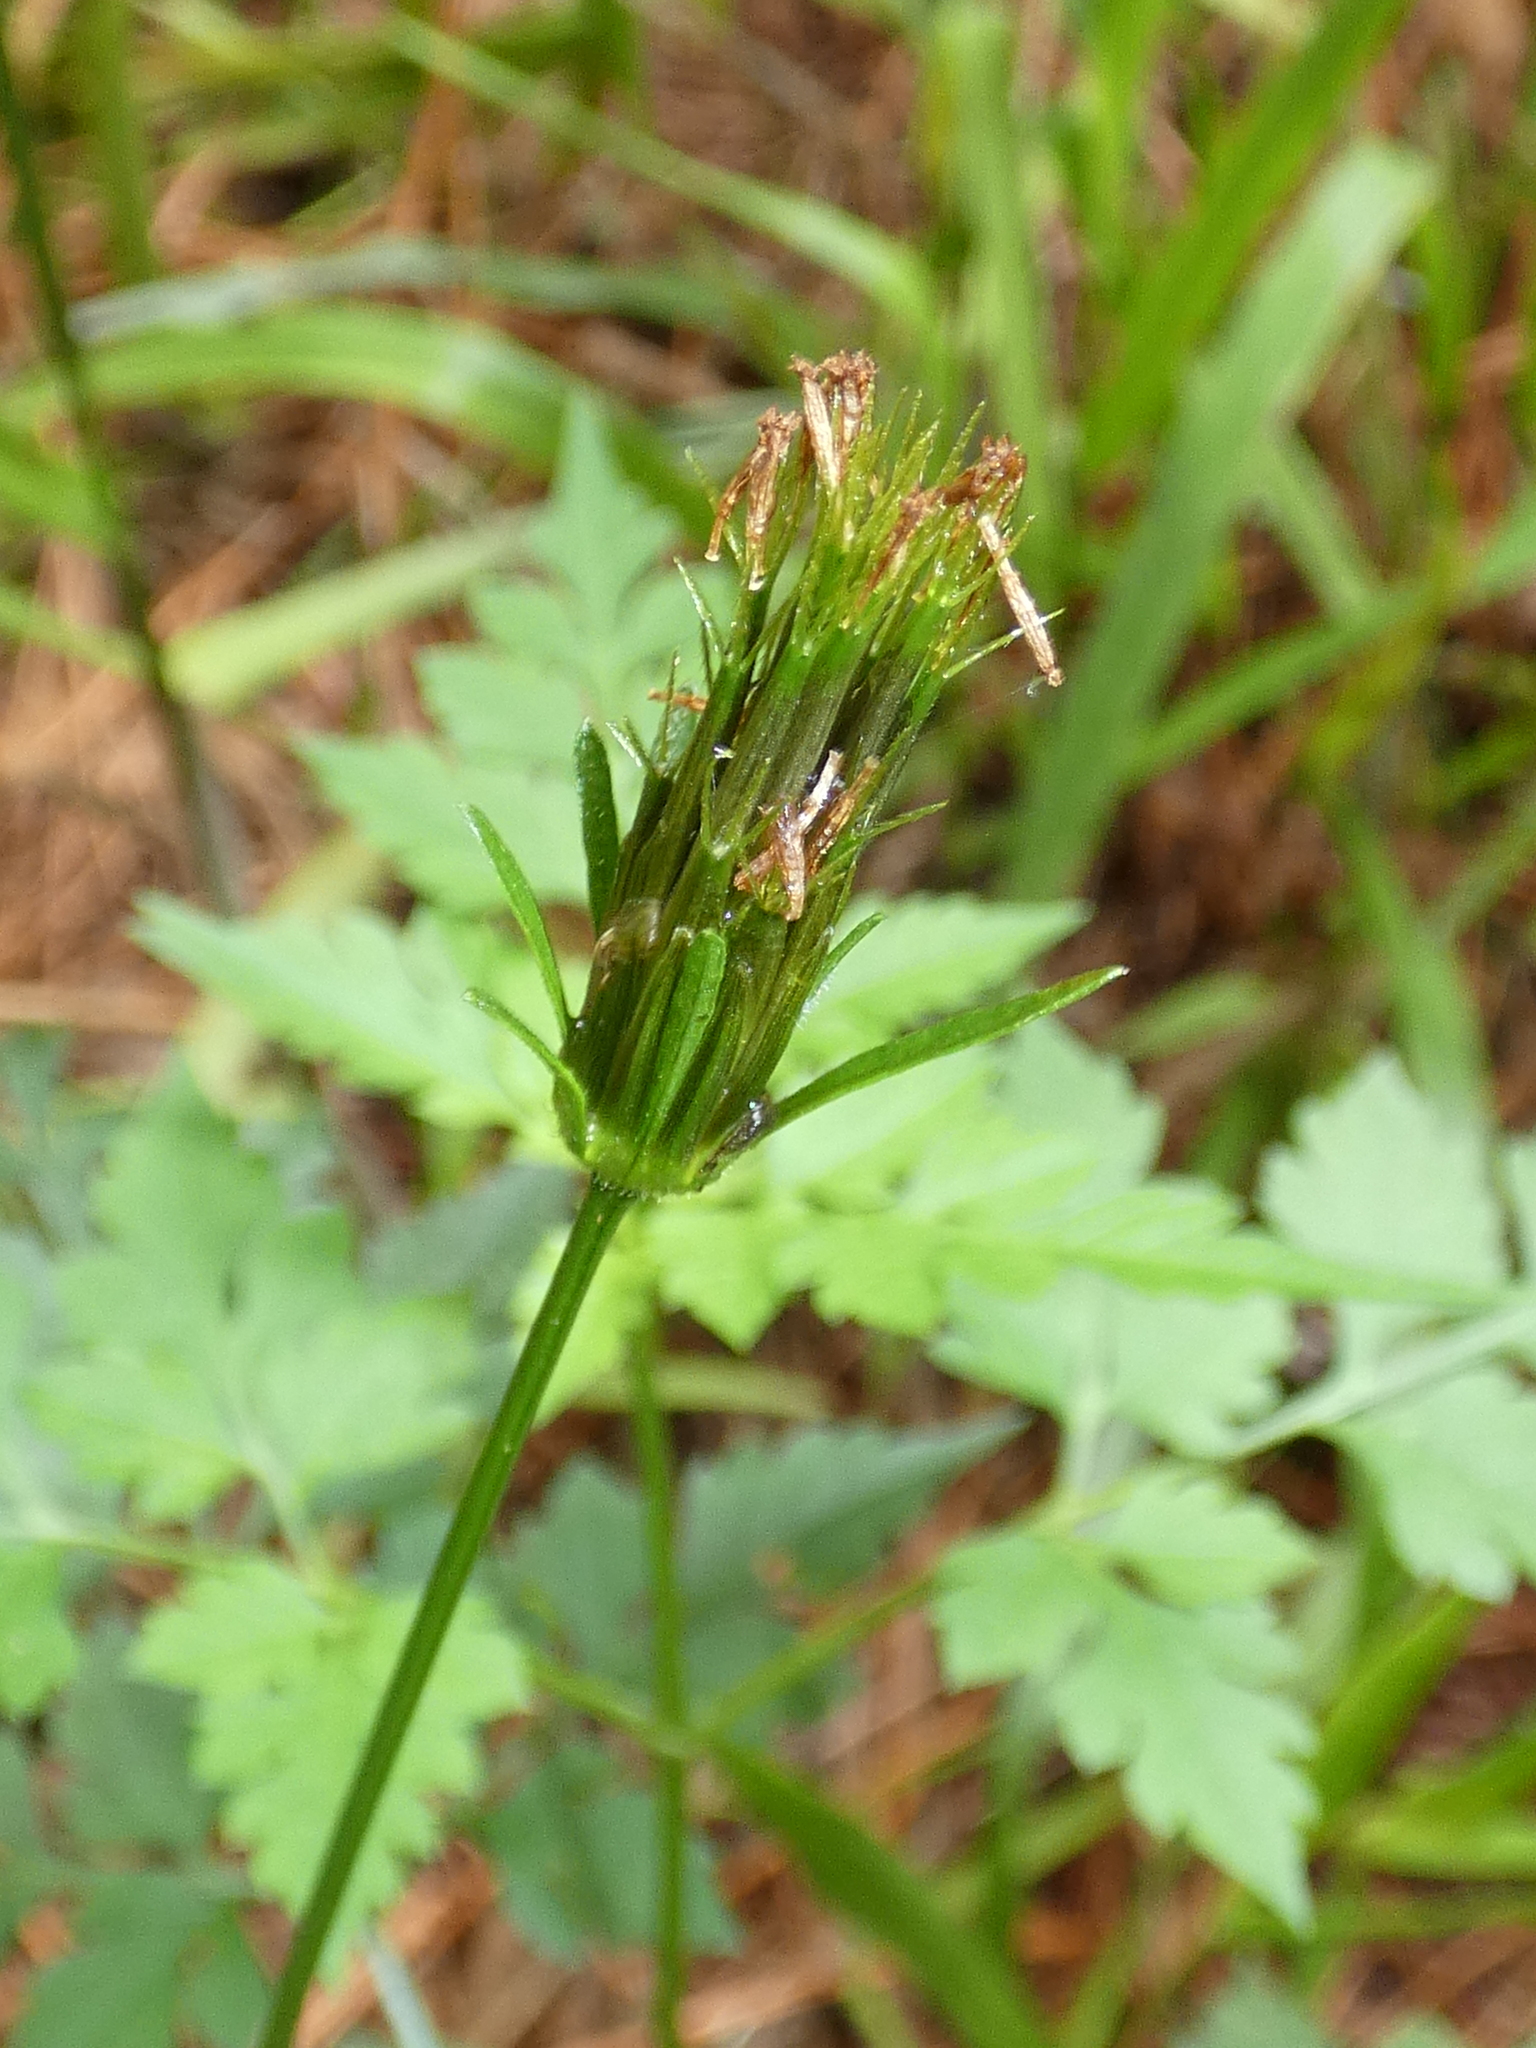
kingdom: Plantae
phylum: Tracheophyta
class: Magnoliopsida
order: Asterales
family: Asteraceae
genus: Bidens
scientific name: Bidens bipinnata
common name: Spanish-needles
